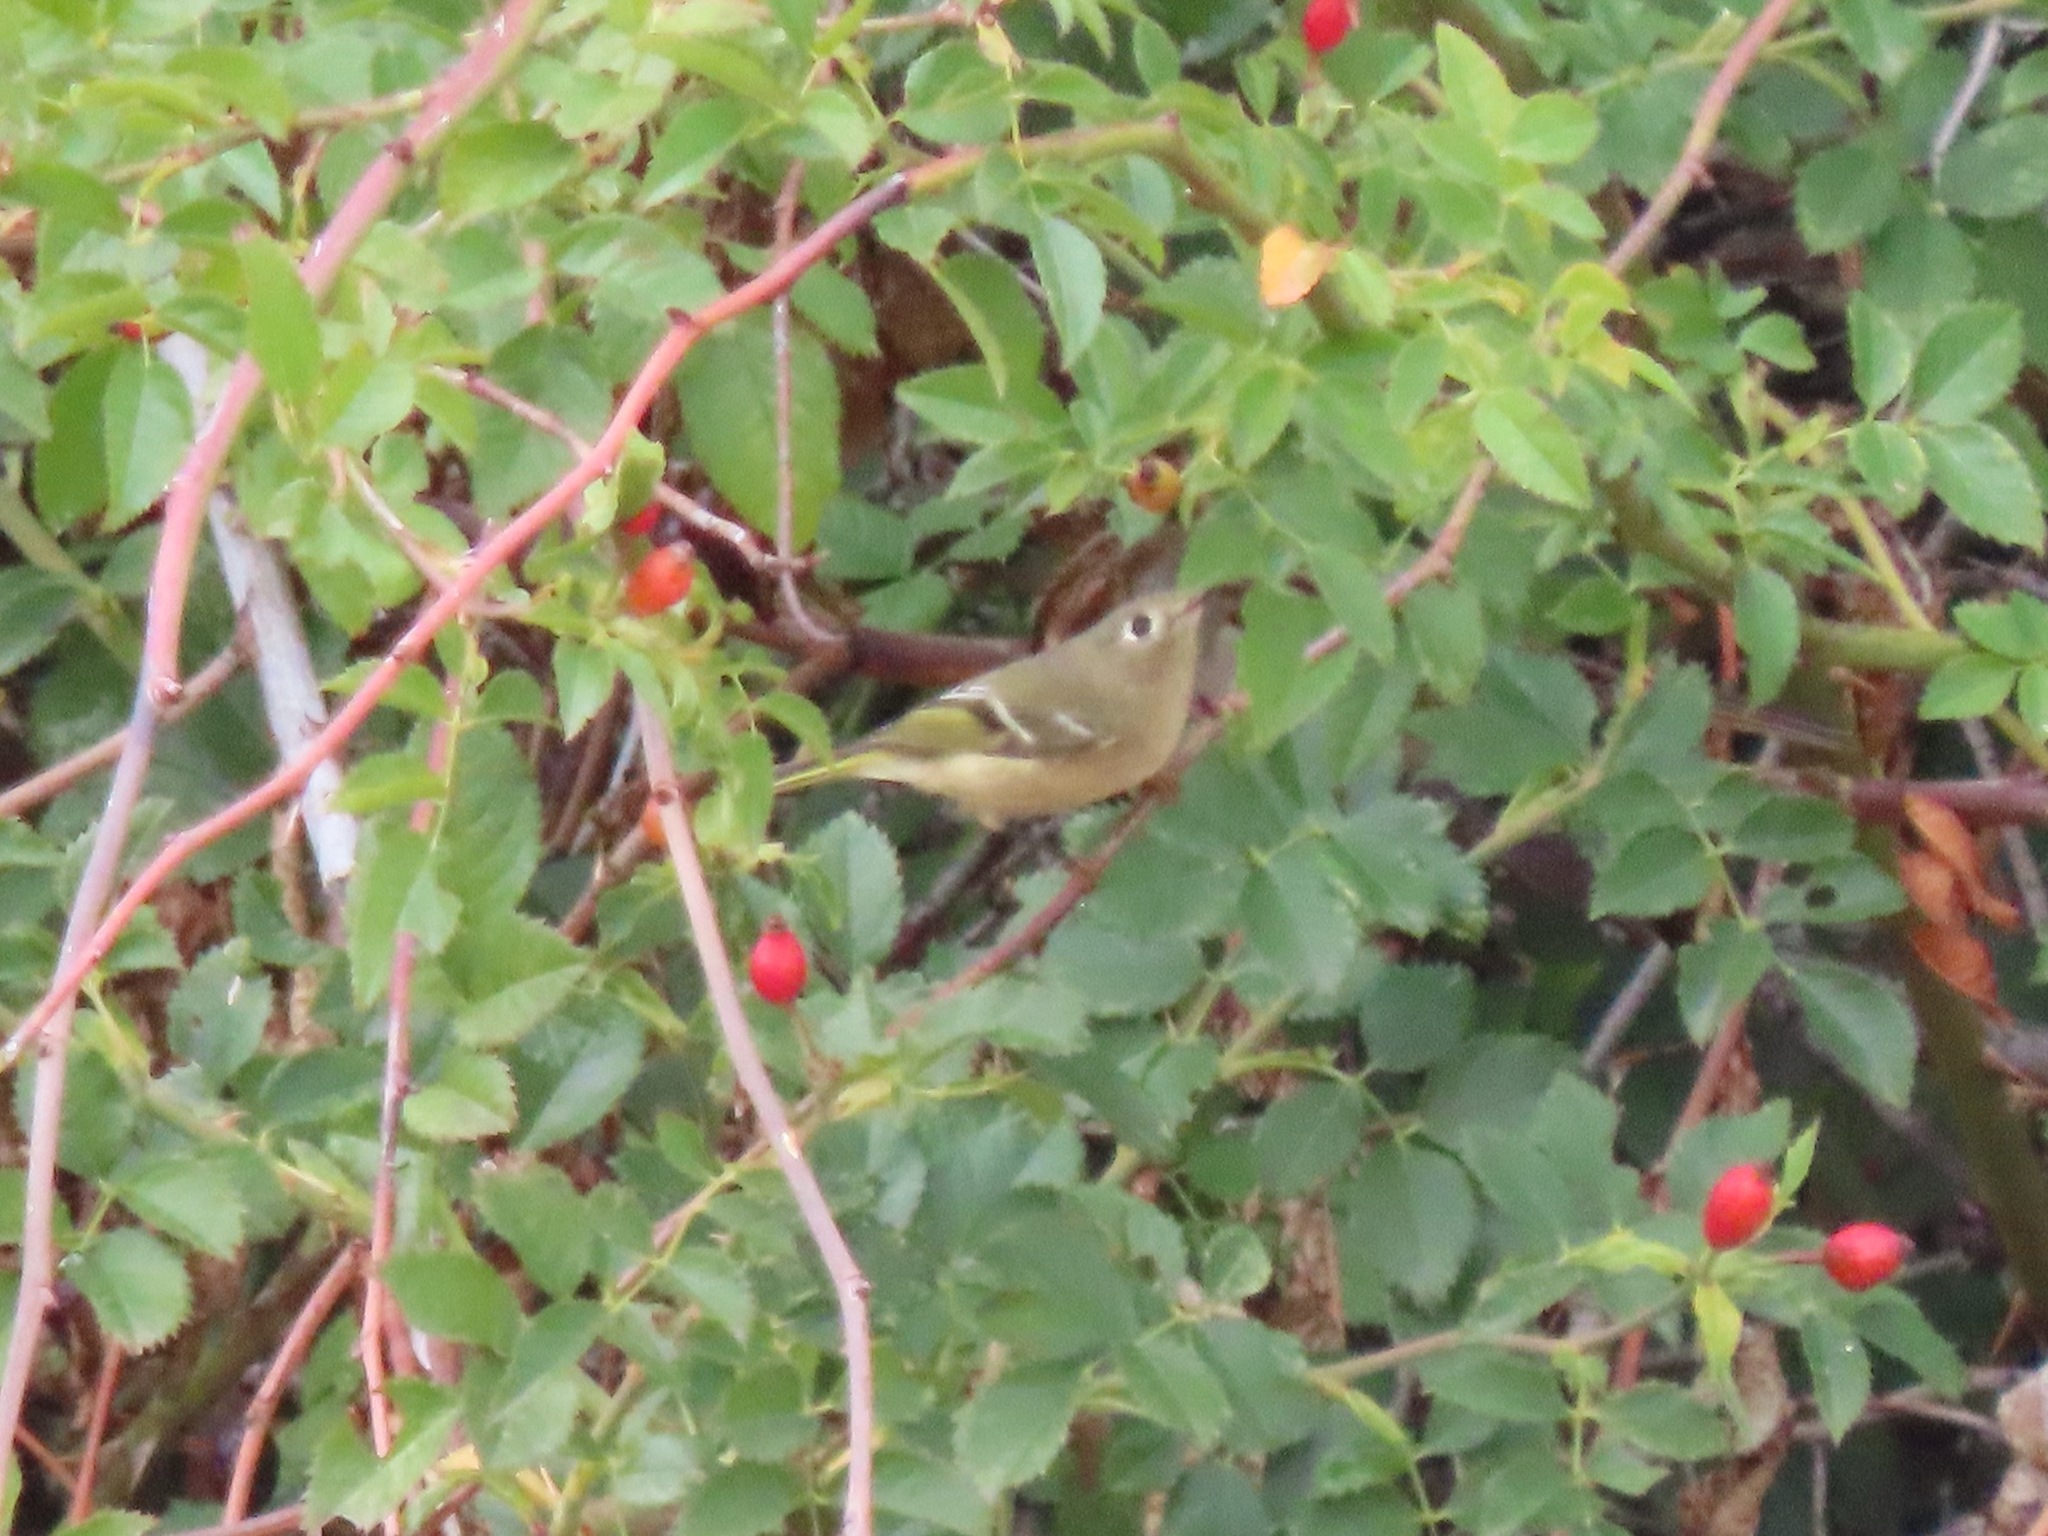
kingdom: Animalia
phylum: Chordata
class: Aves
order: Passeriformes
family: Regulidae
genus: Regulus
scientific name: Regulus calendula
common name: Ruby-crowned kinglet
